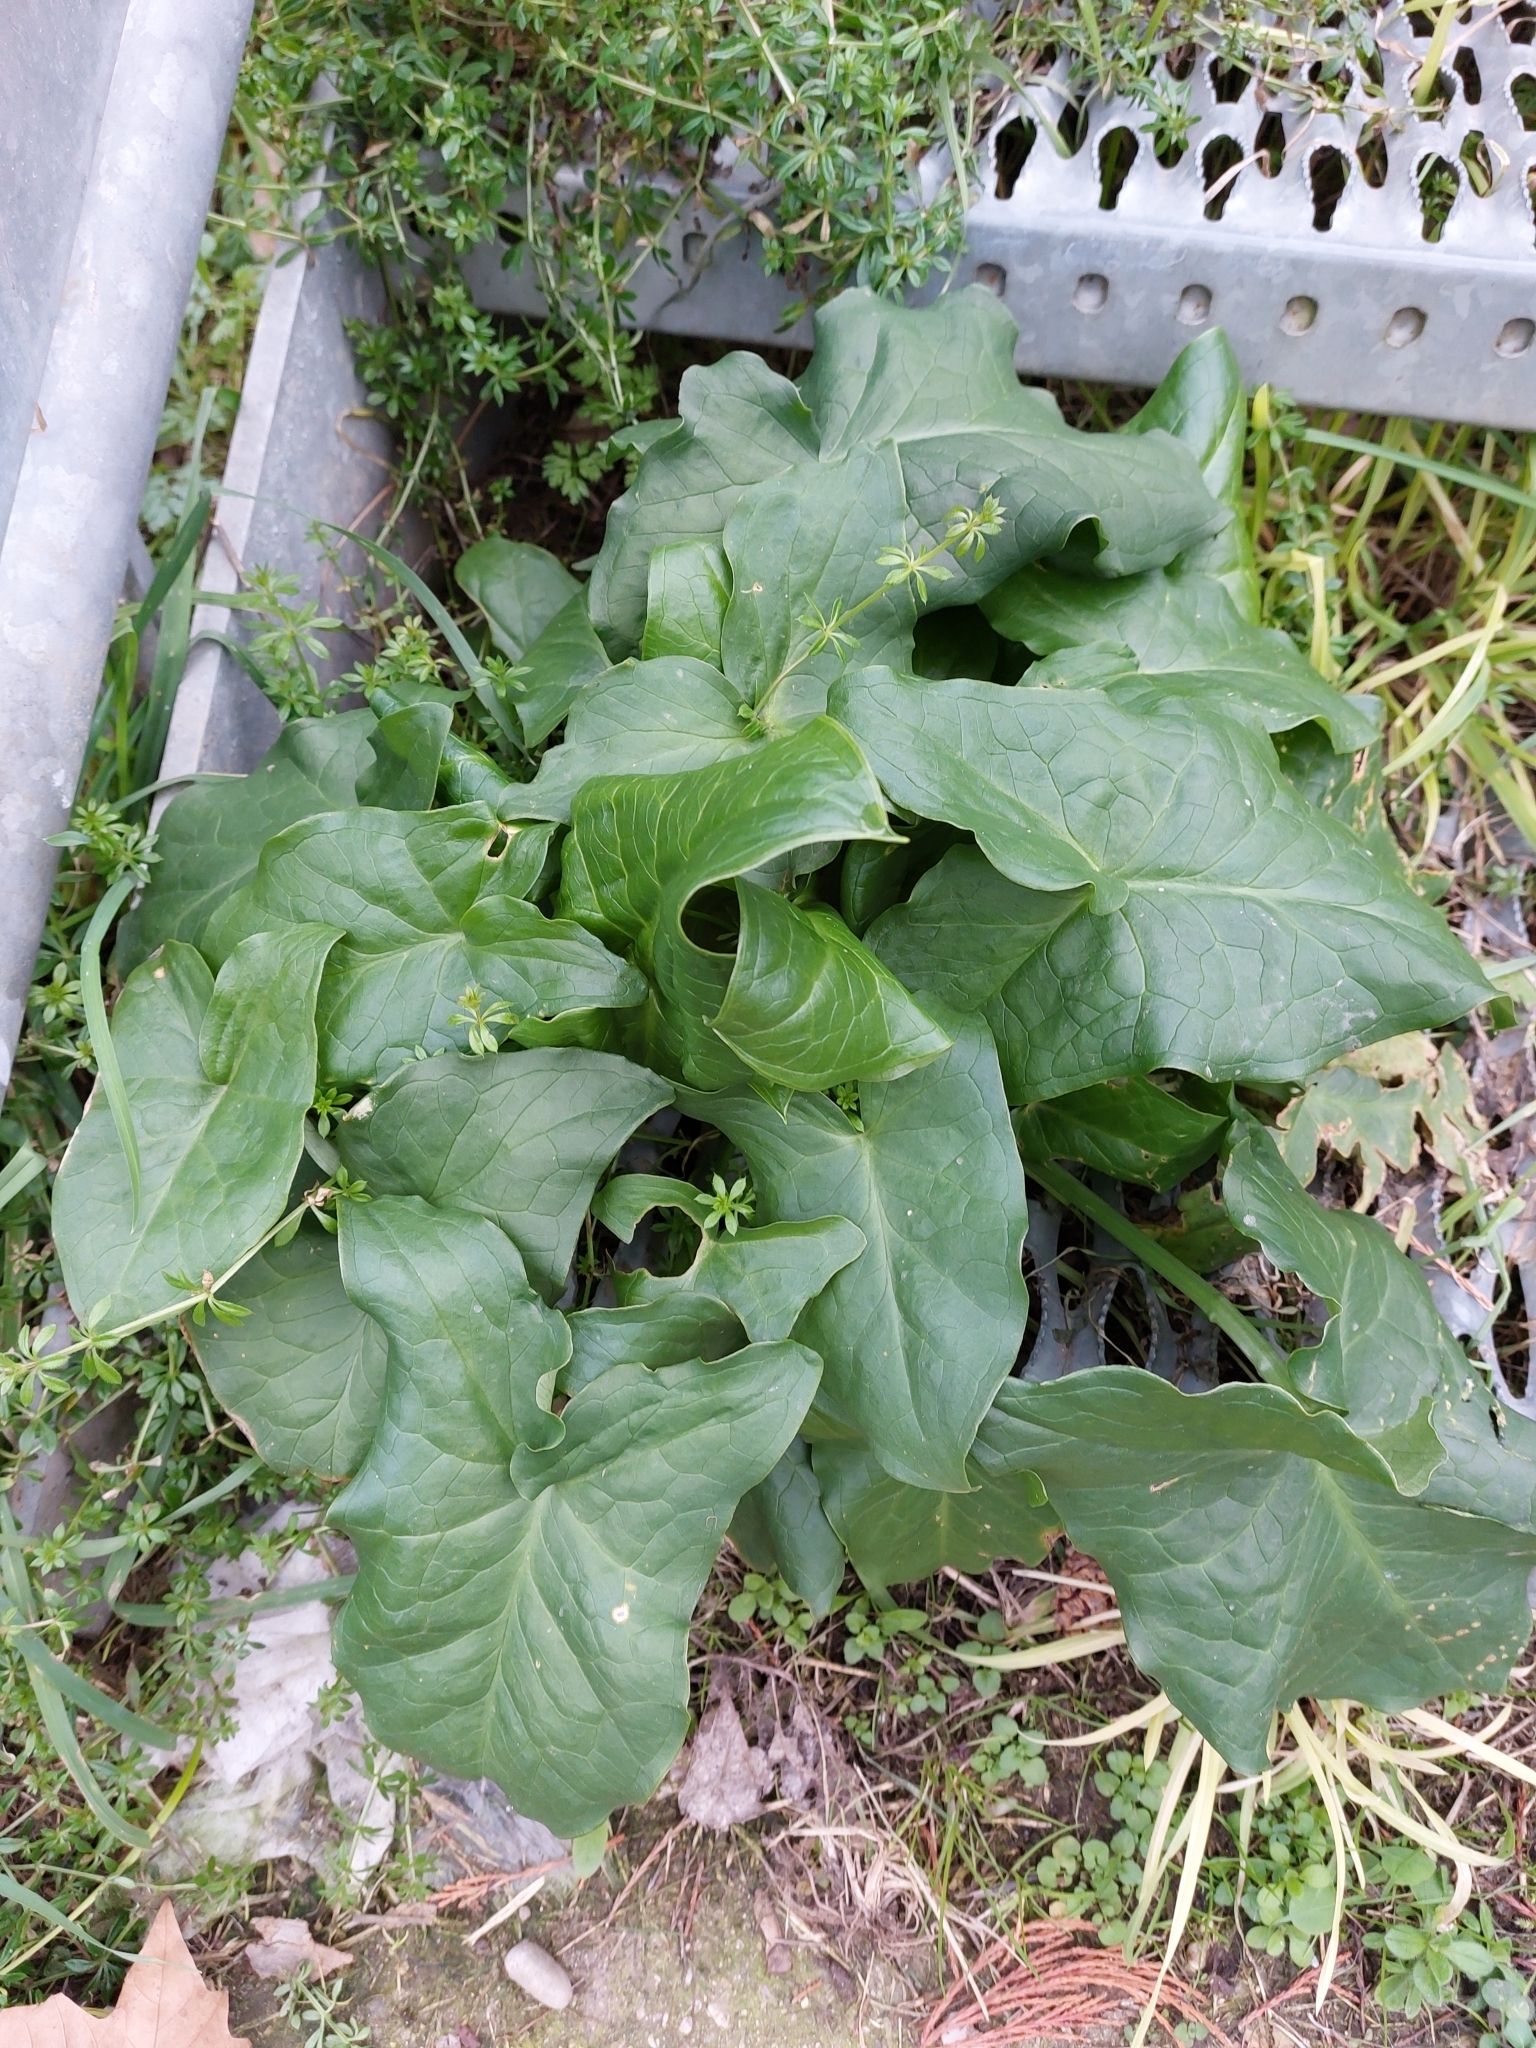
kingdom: Plantae
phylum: Tracheophyta
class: Liliopsida
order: Alismatales
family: Araceae
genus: Arum
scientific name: Arum italicum
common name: Italian lords-and-ladies
